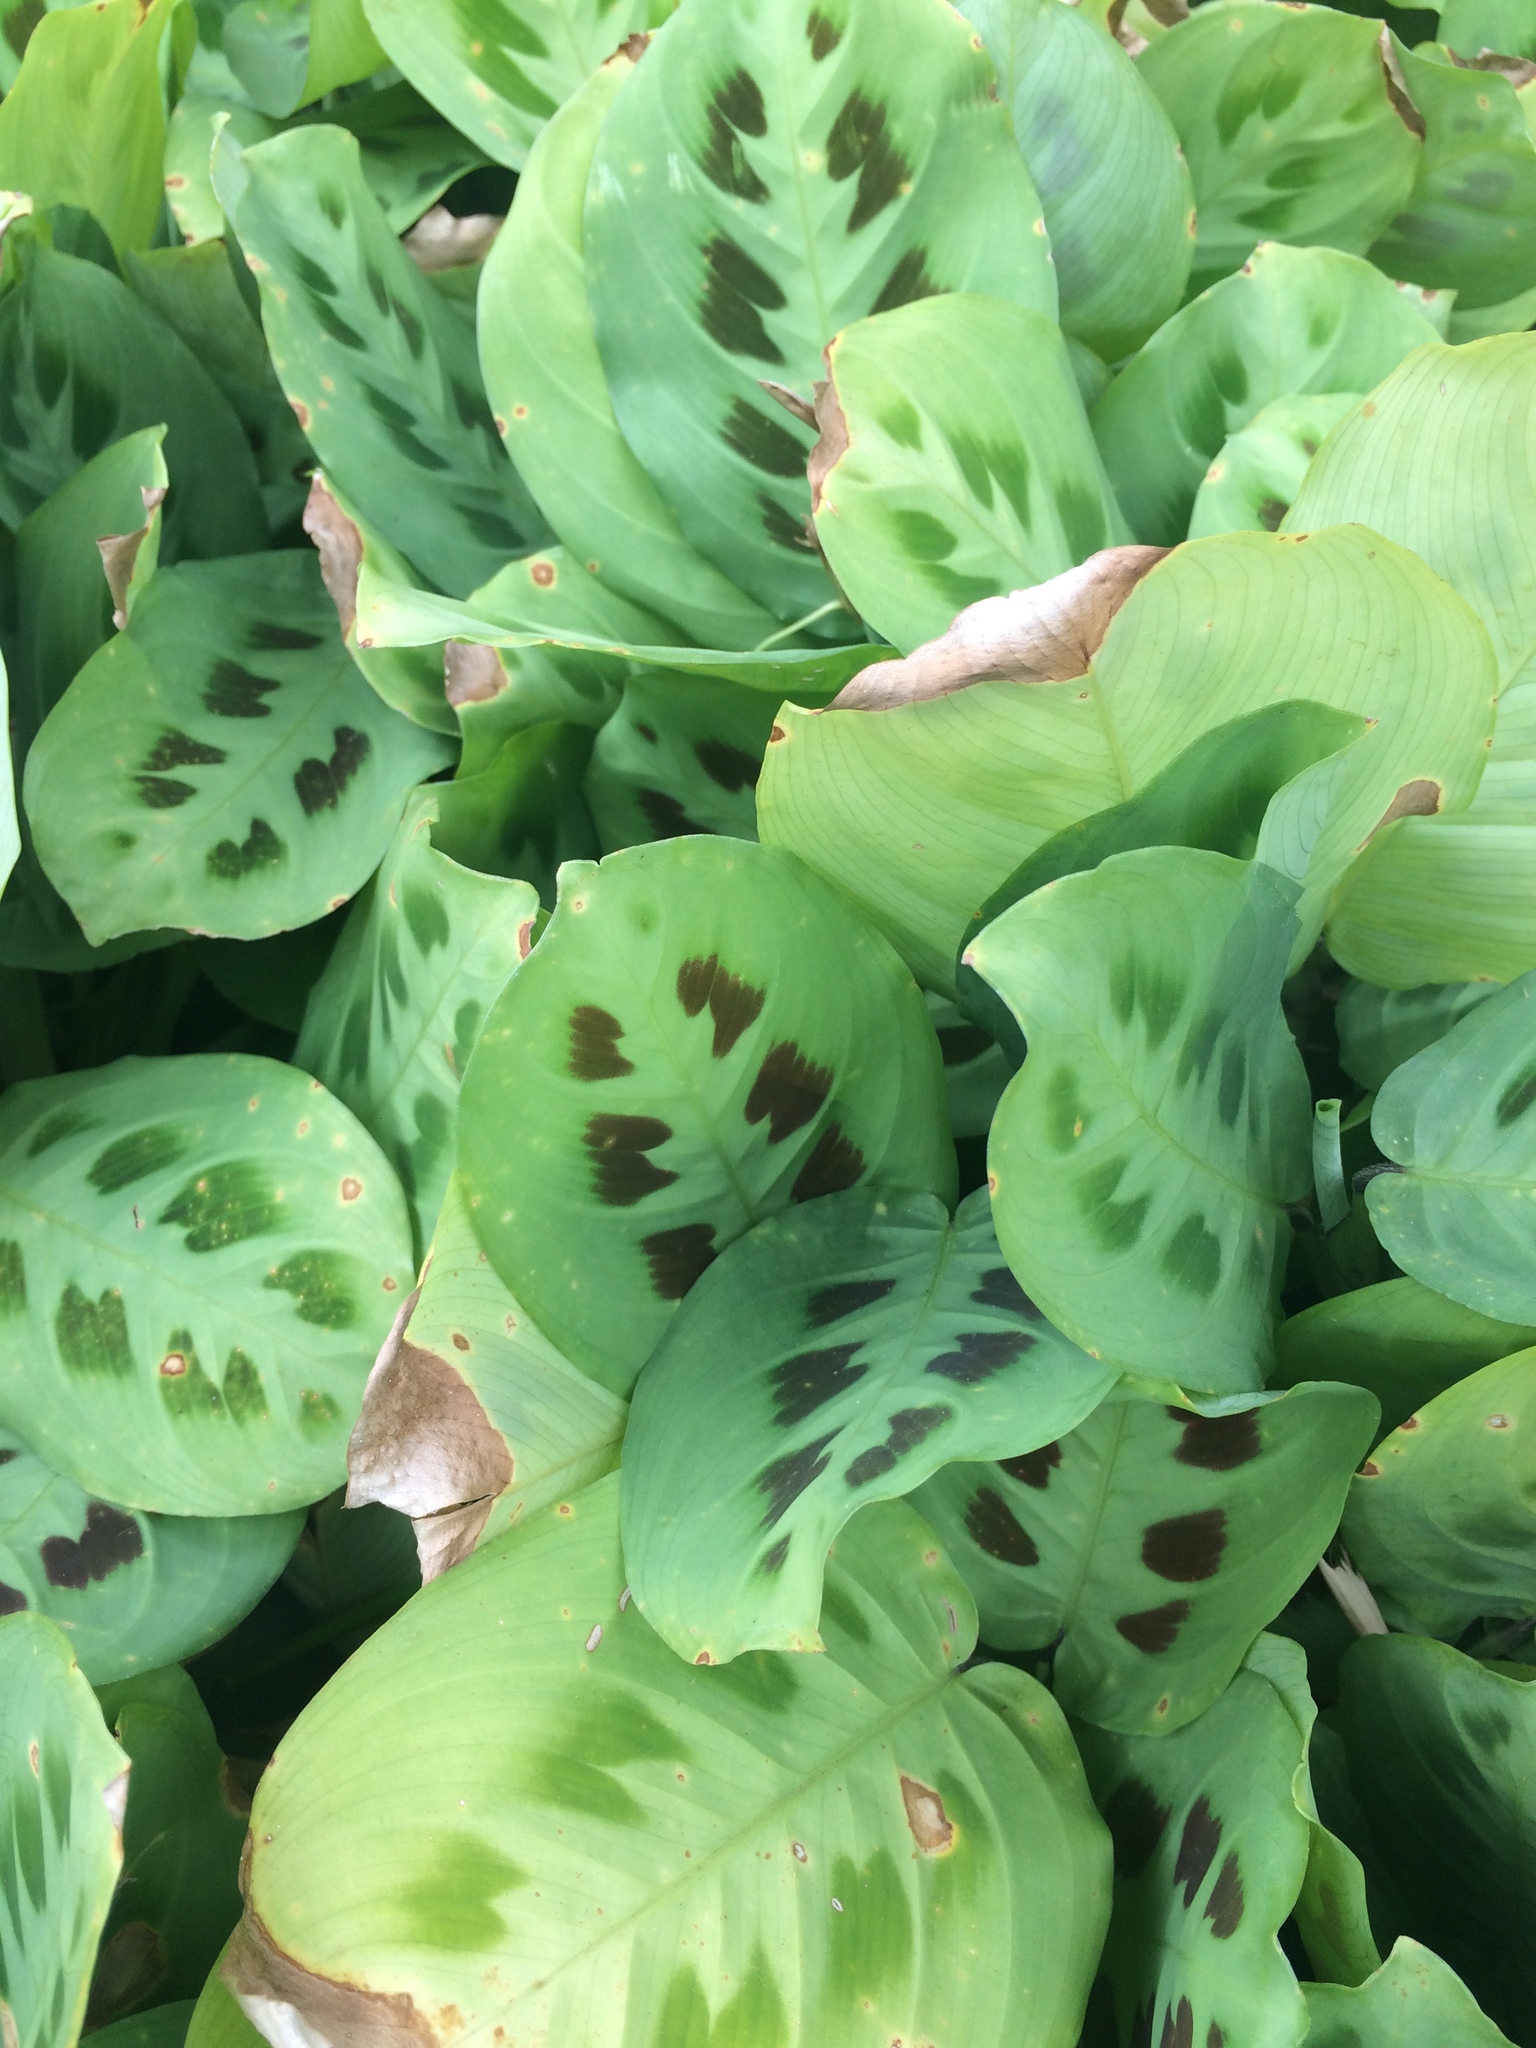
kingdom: Plantae
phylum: Tracheophyta
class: Liliopsida
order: Zingiberales
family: Marantaceae
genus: Maranta
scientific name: Maranta leuconeura
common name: Ten-commandments
